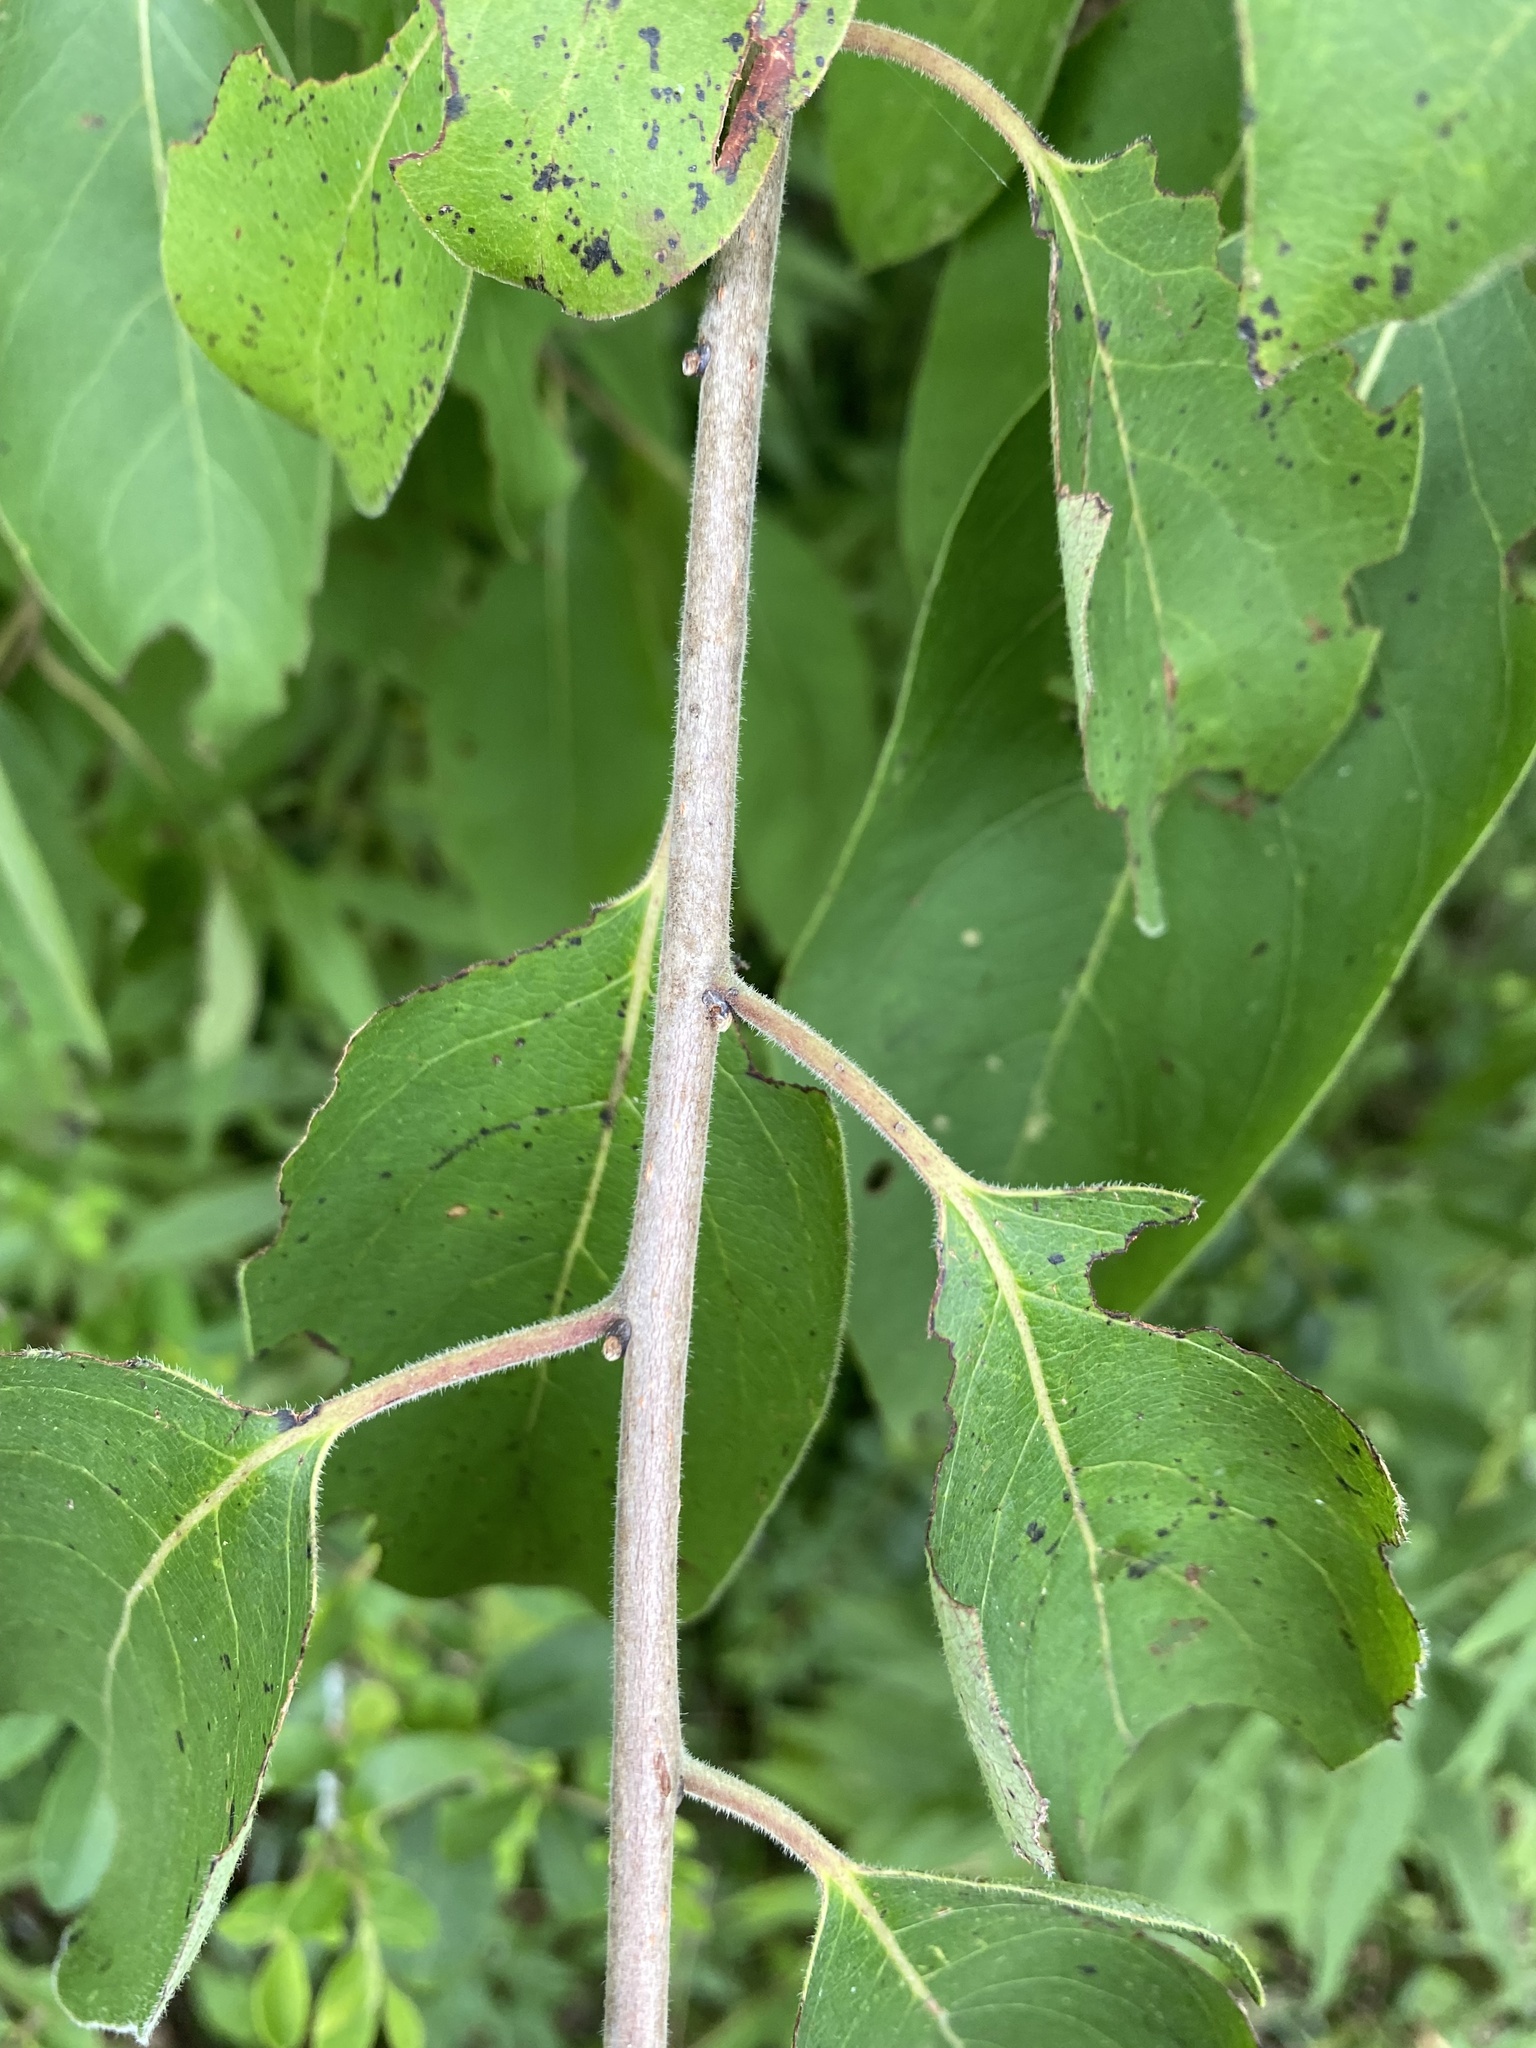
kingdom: Plantae
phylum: Tracheophyta
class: Magnoliopsida
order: Ericales
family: Ebenaceae
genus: Diospyros
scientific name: Diospyros virginiana
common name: Persimmon
